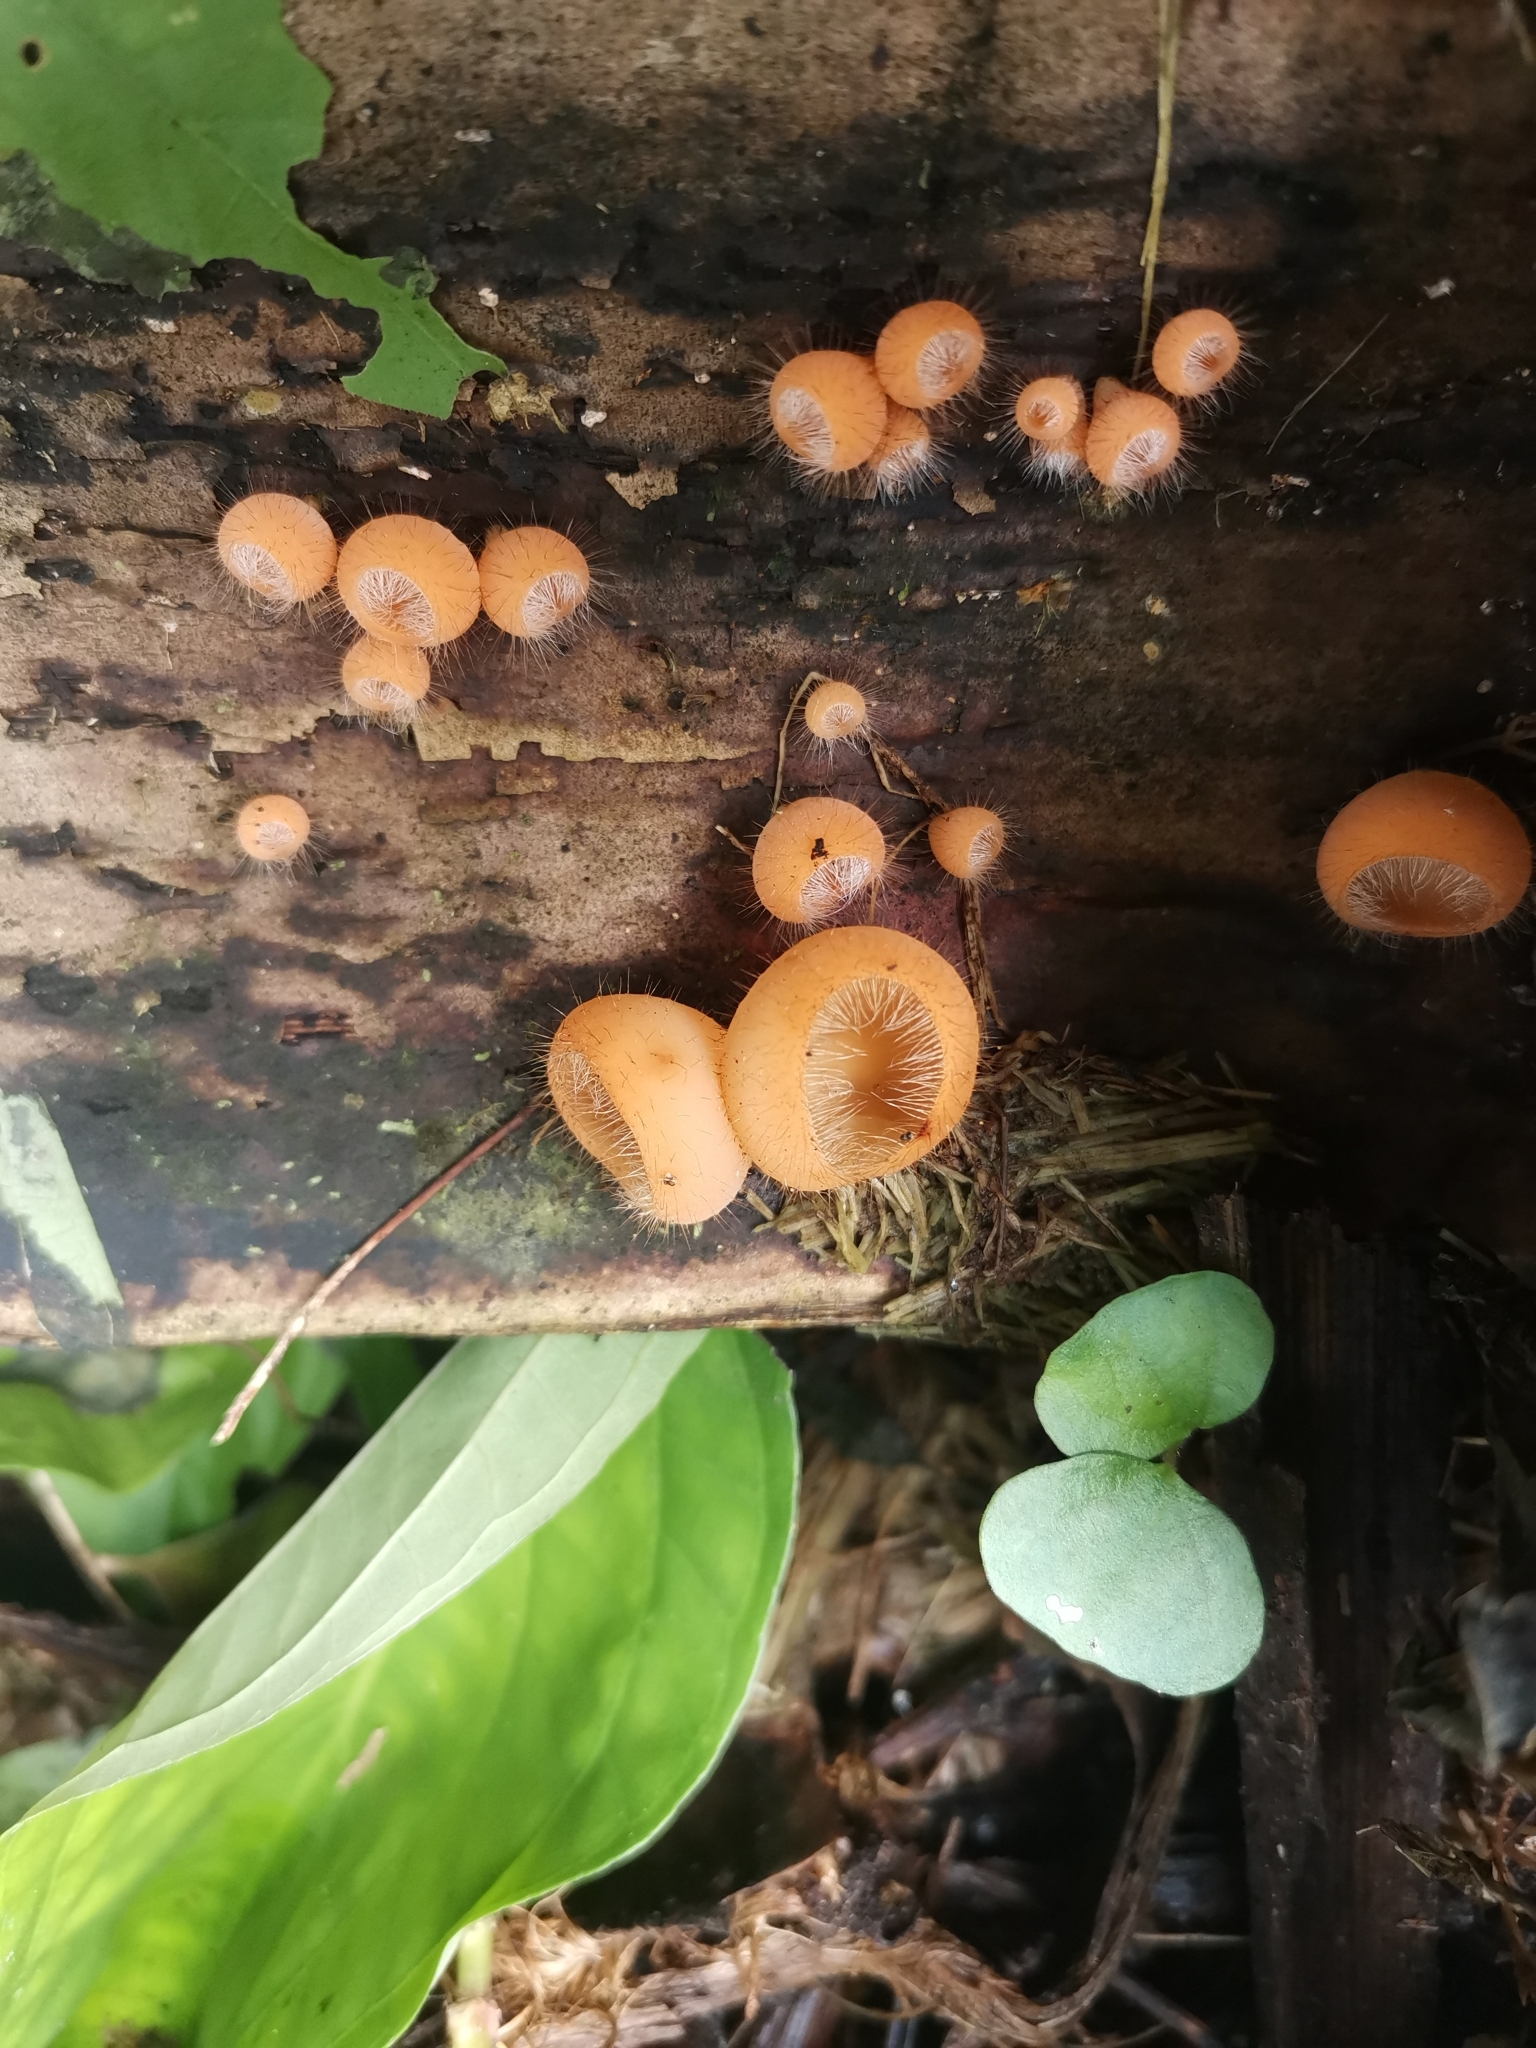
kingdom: Fungi
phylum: Ascomycota
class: Pezizomycetes
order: Pezizales
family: Sarcoscyphaceae
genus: Cookeina
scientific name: Cookeina tricholoma
